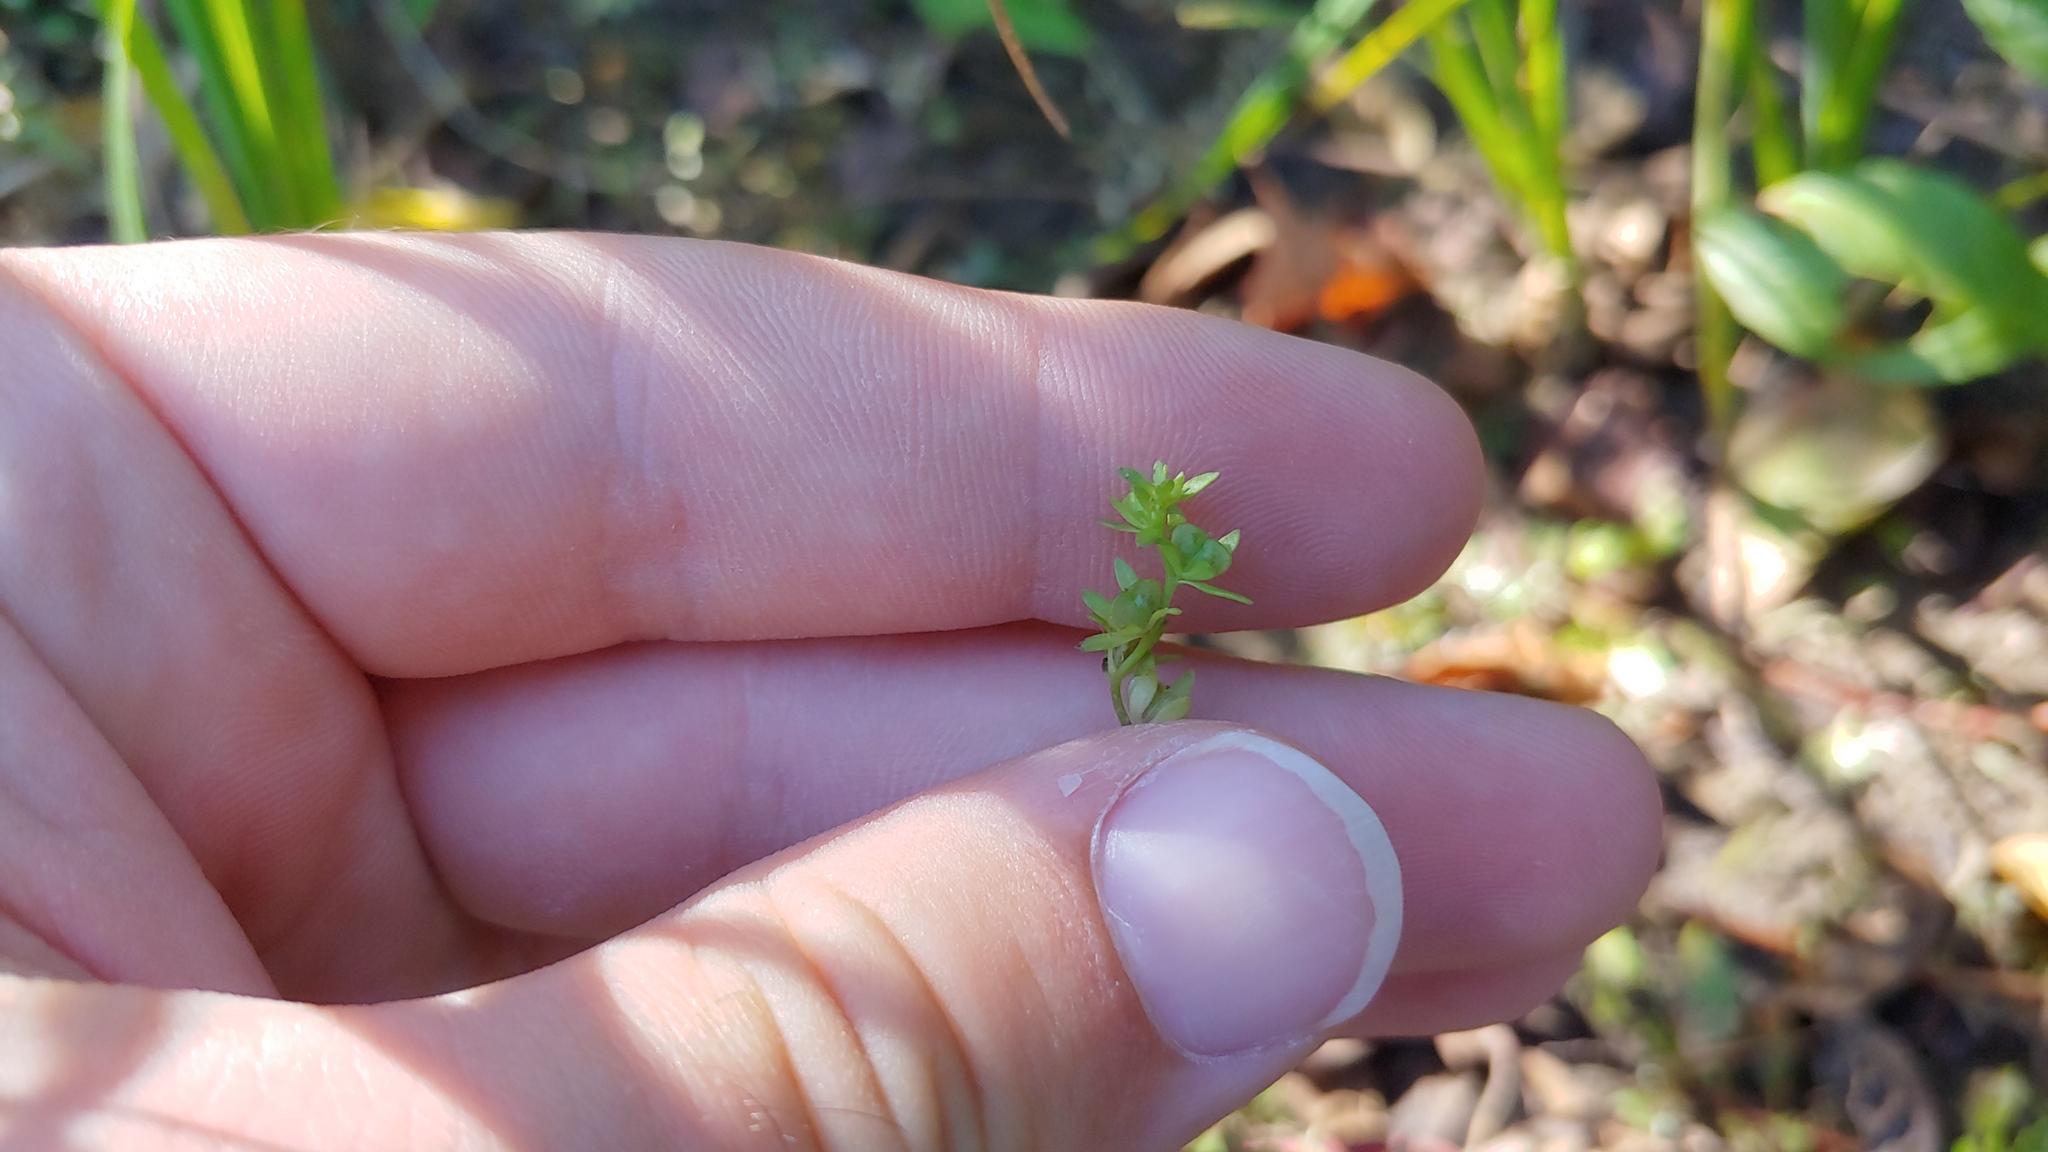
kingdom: Plantae
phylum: Tracheophyta
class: Magnoliopsida
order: Lamiales
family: Plantaginaceae
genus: Veronica
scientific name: Veronica peregrina
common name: Neckweed
